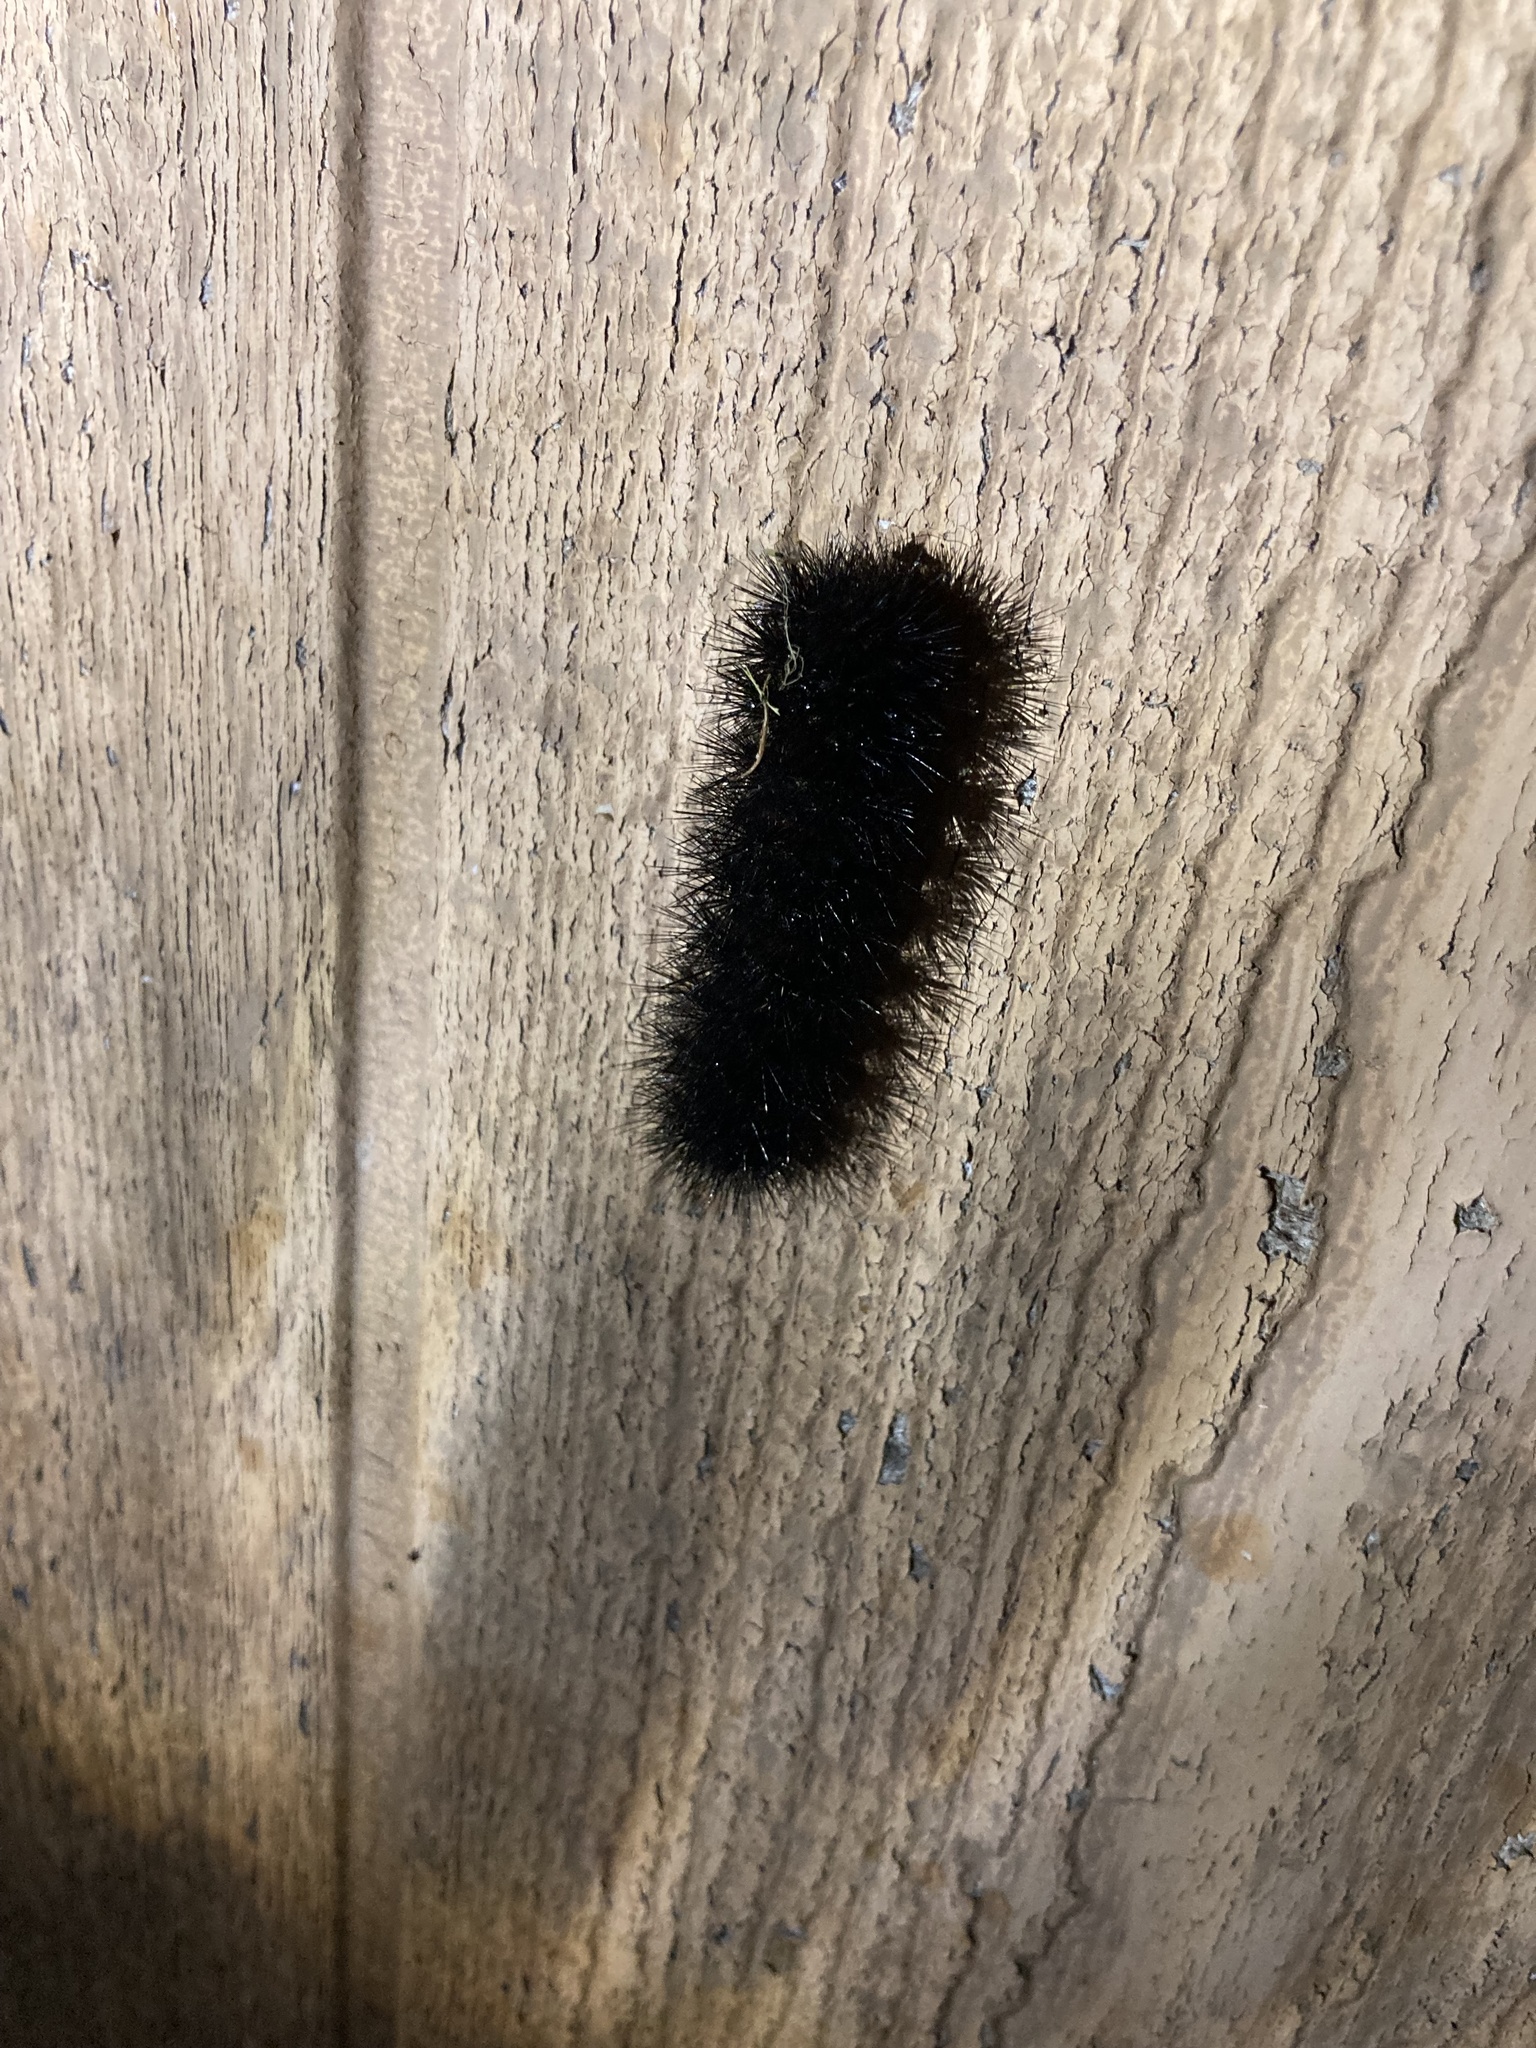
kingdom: Animalia
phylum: Arthropoda
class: Insecta
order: Lepidoptera
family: Erebidae
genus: Hypercompe
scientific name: Hypercompe scribonia
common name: Giant leopard moth
